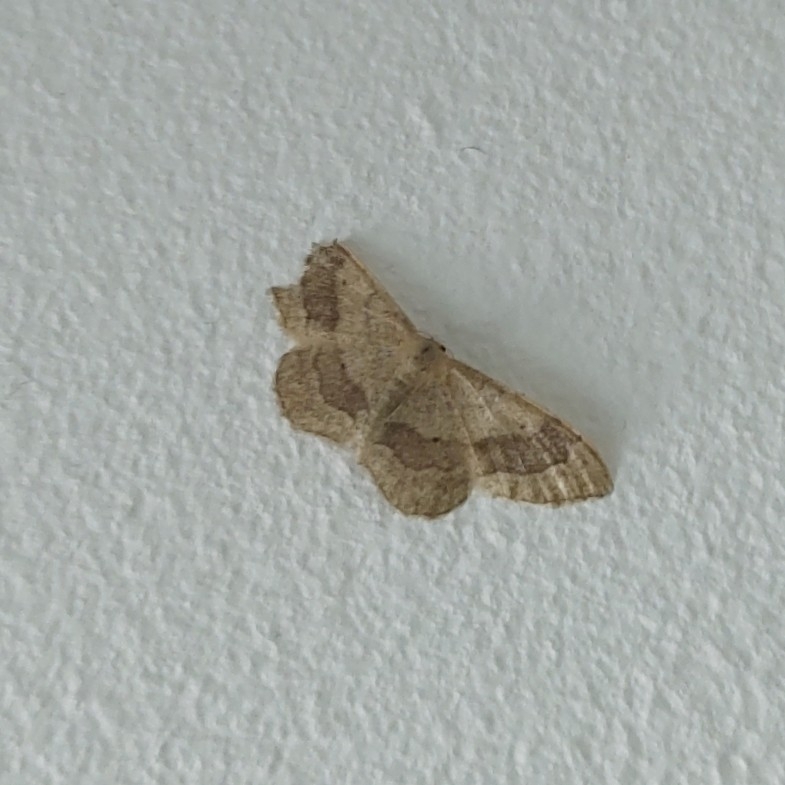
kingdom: Animalia
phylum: Arthropoda
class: Insecta
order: Lepidoptera
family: Geometridae
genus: Idaea
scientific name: Idaea aversata
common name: Riband wave
